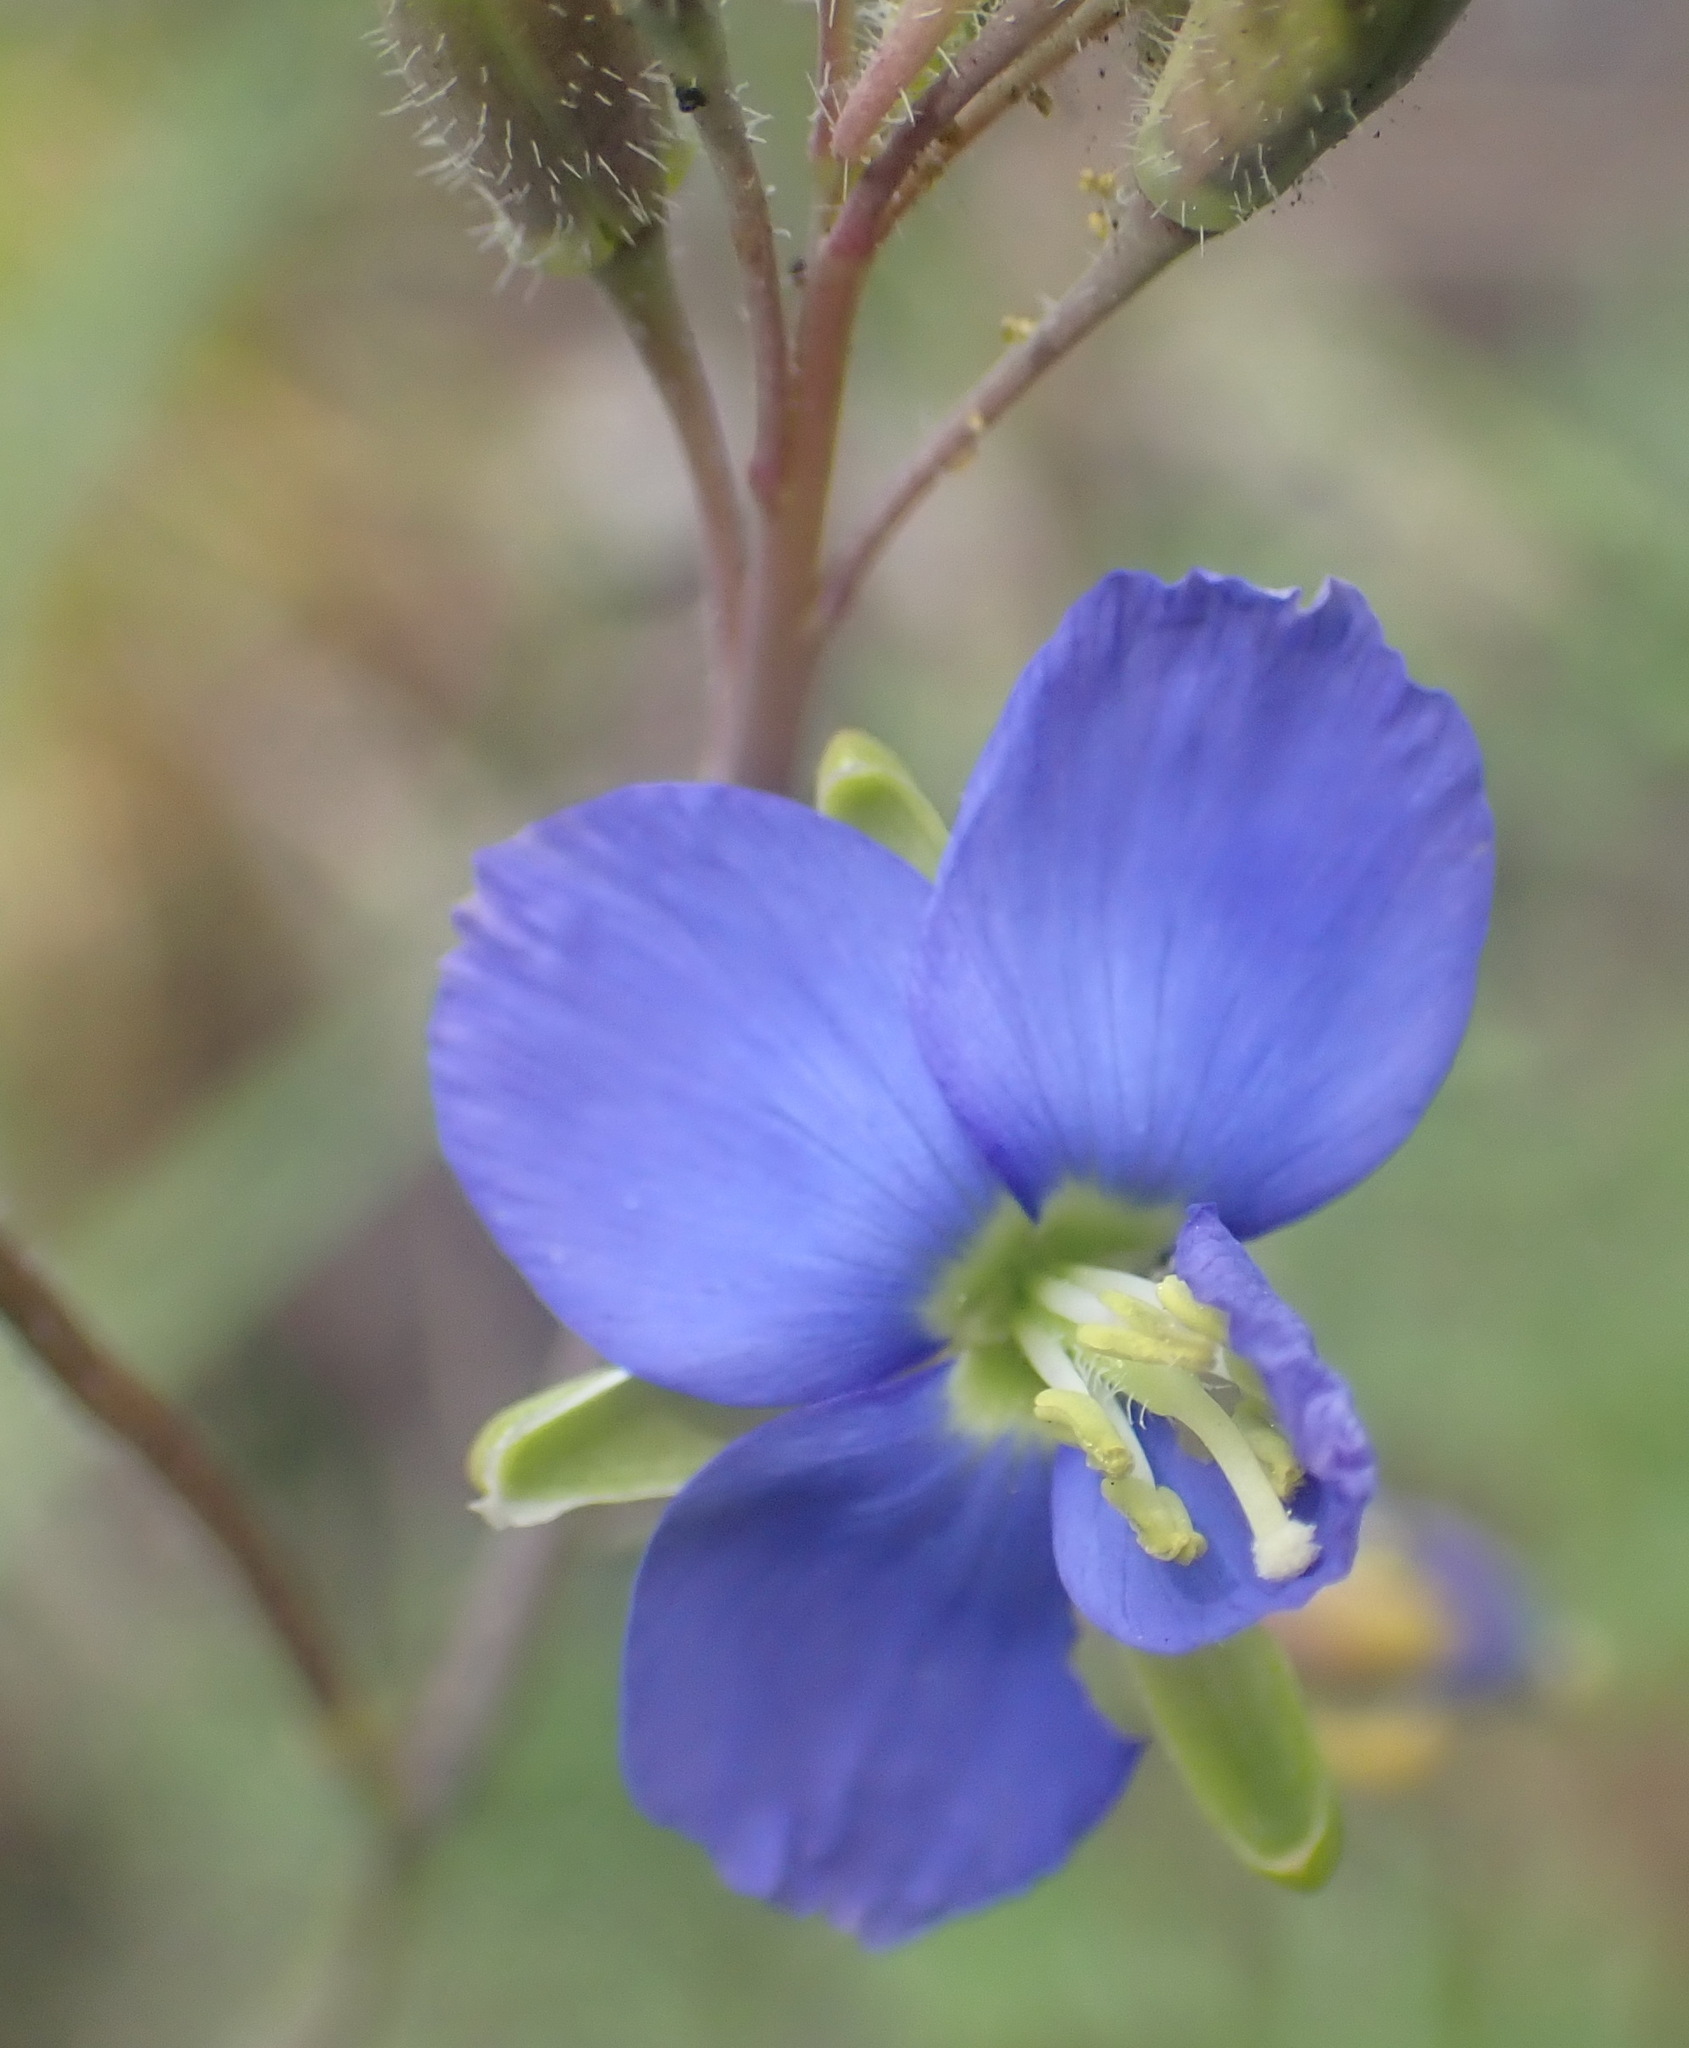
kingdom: Plantae
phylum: Tracheophyta
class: Magnoliopsida
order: Brassicales
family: Brassicaceae
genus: Heliophila
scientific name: Heliophila linearis
